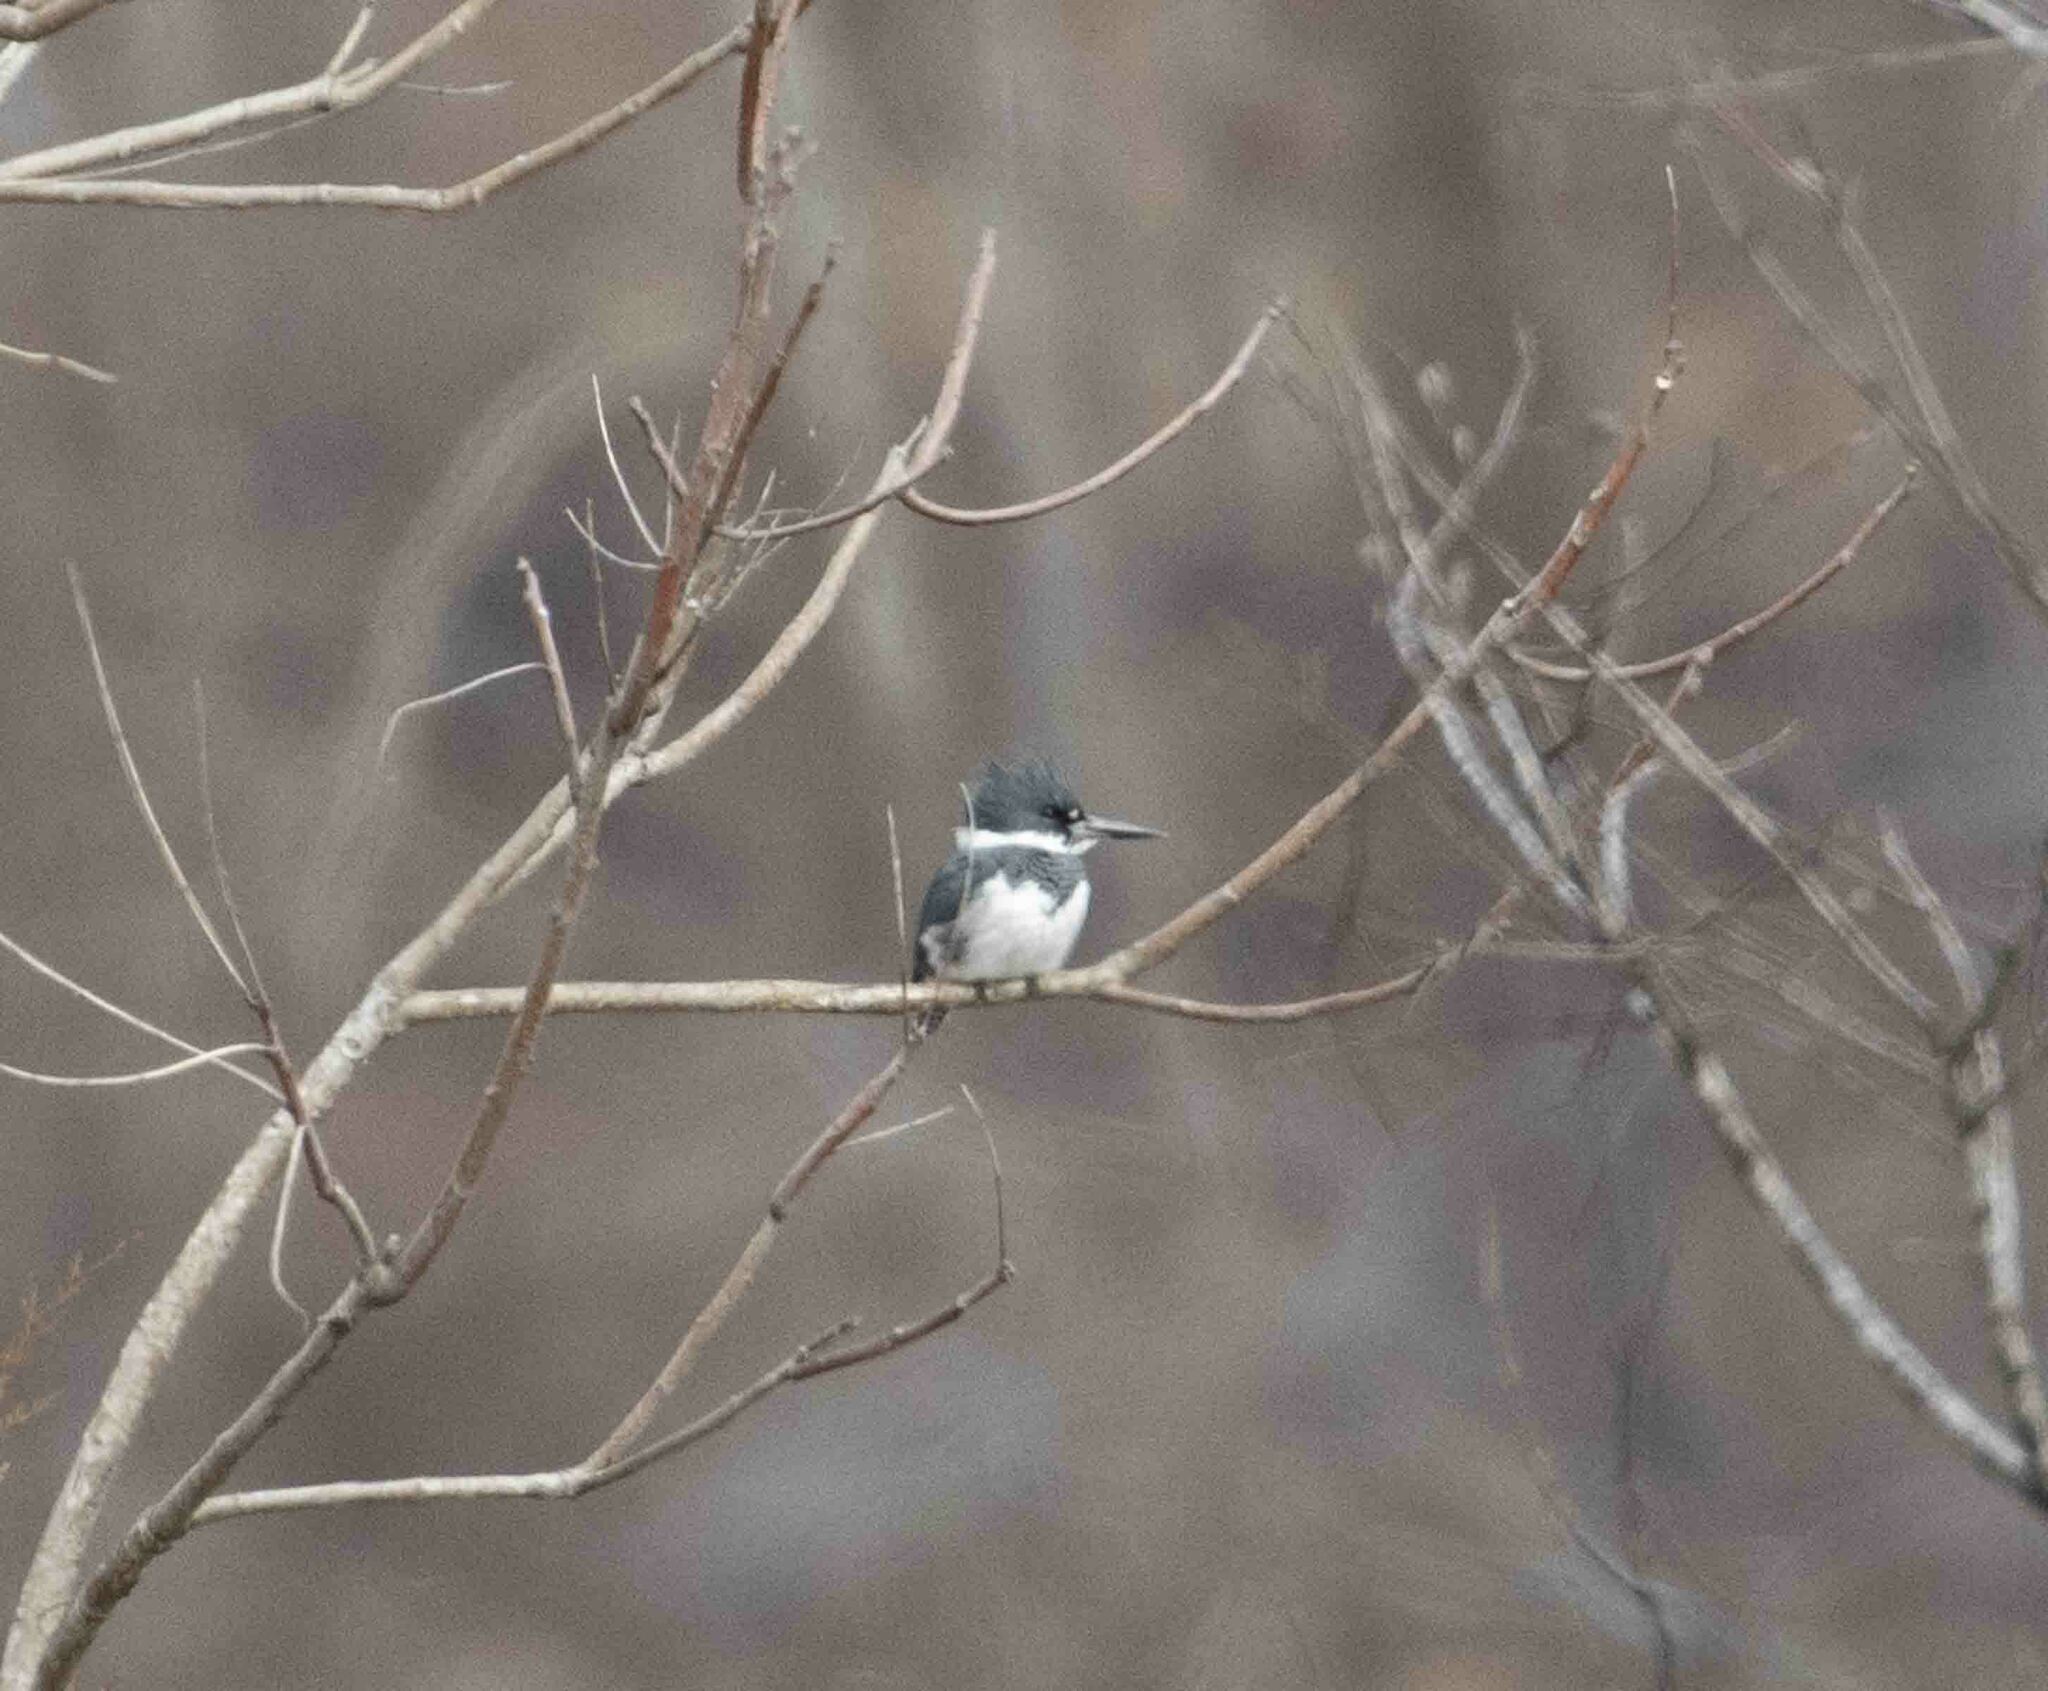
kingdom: Animalia
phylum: Chordata
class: Aves
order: Coraciiformes
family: Alcedinidae
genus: Megaceryle
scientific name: Megaceryle alcyon
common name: Belted kingfisher
